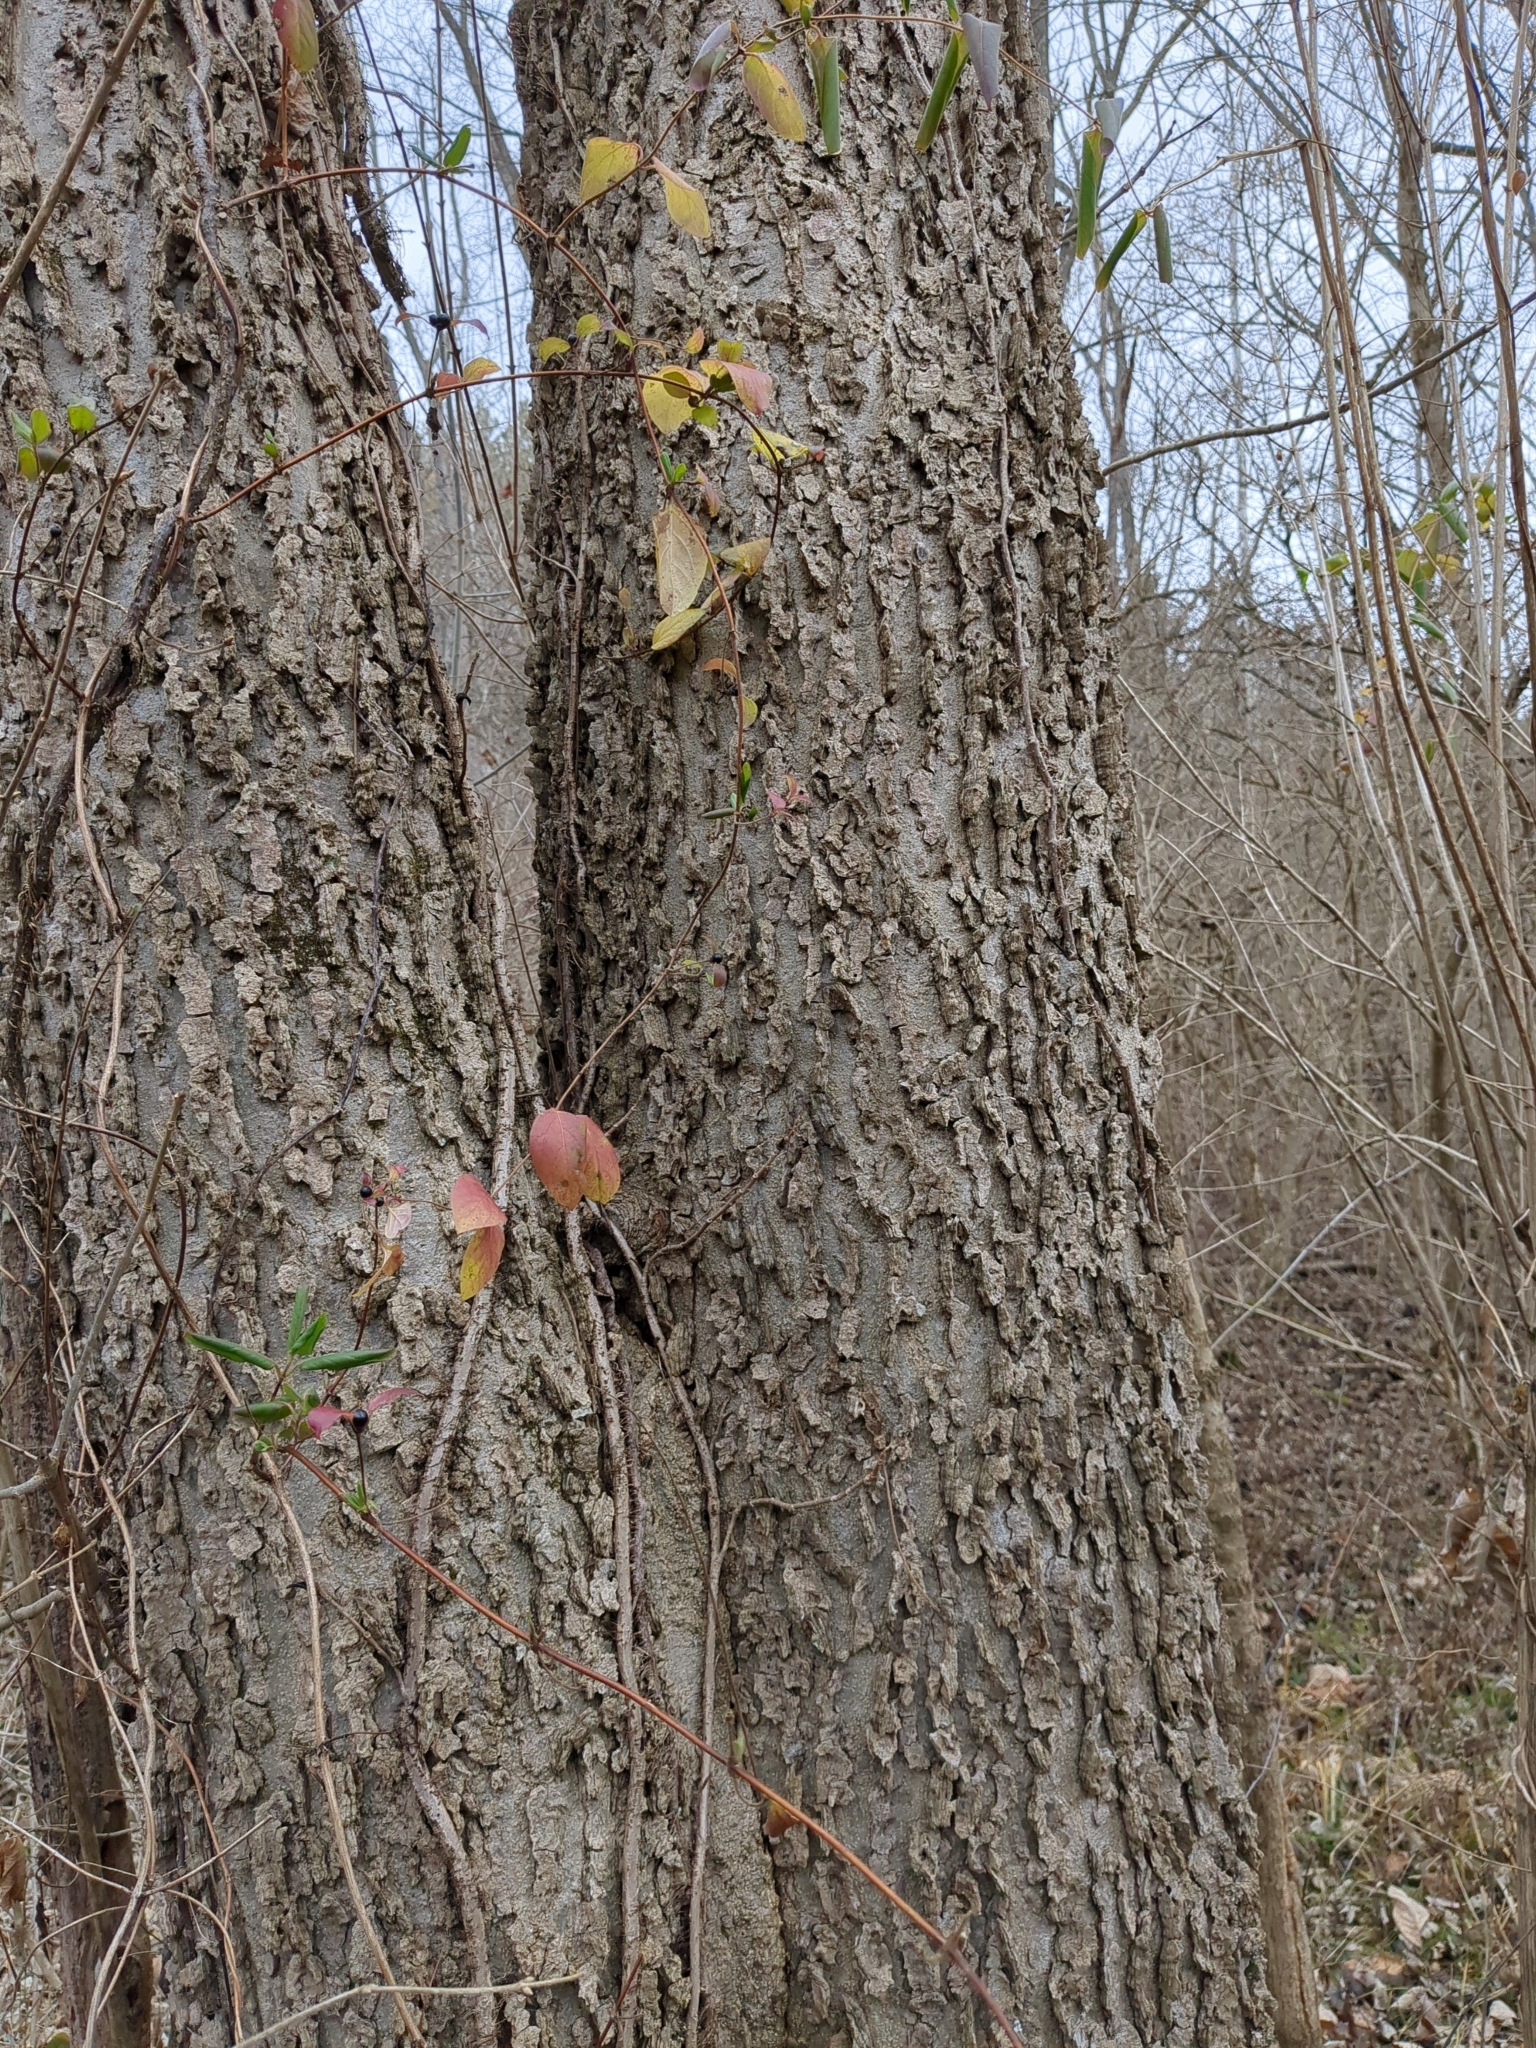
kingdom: Plantae
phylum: Tracheophyta
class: Magnoliopsida
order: Rosales
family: Cannabaceae
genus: Celtis
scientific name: Celtis occidentalis
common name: Common hackberry
